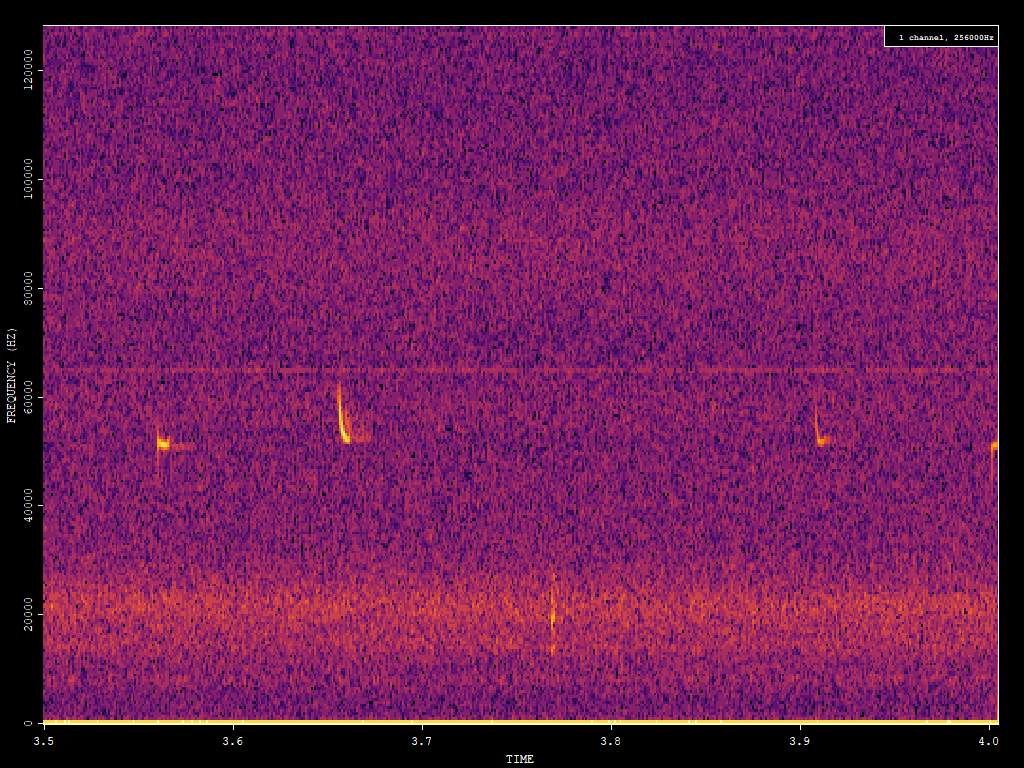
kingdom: Animalia
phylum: Chordata
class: Mammalia
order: Chiroptera
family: Vespertilionidae
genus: Pipistrellus
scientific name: Pipistrellus pygmaeus
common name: Soprano pipistrelle
